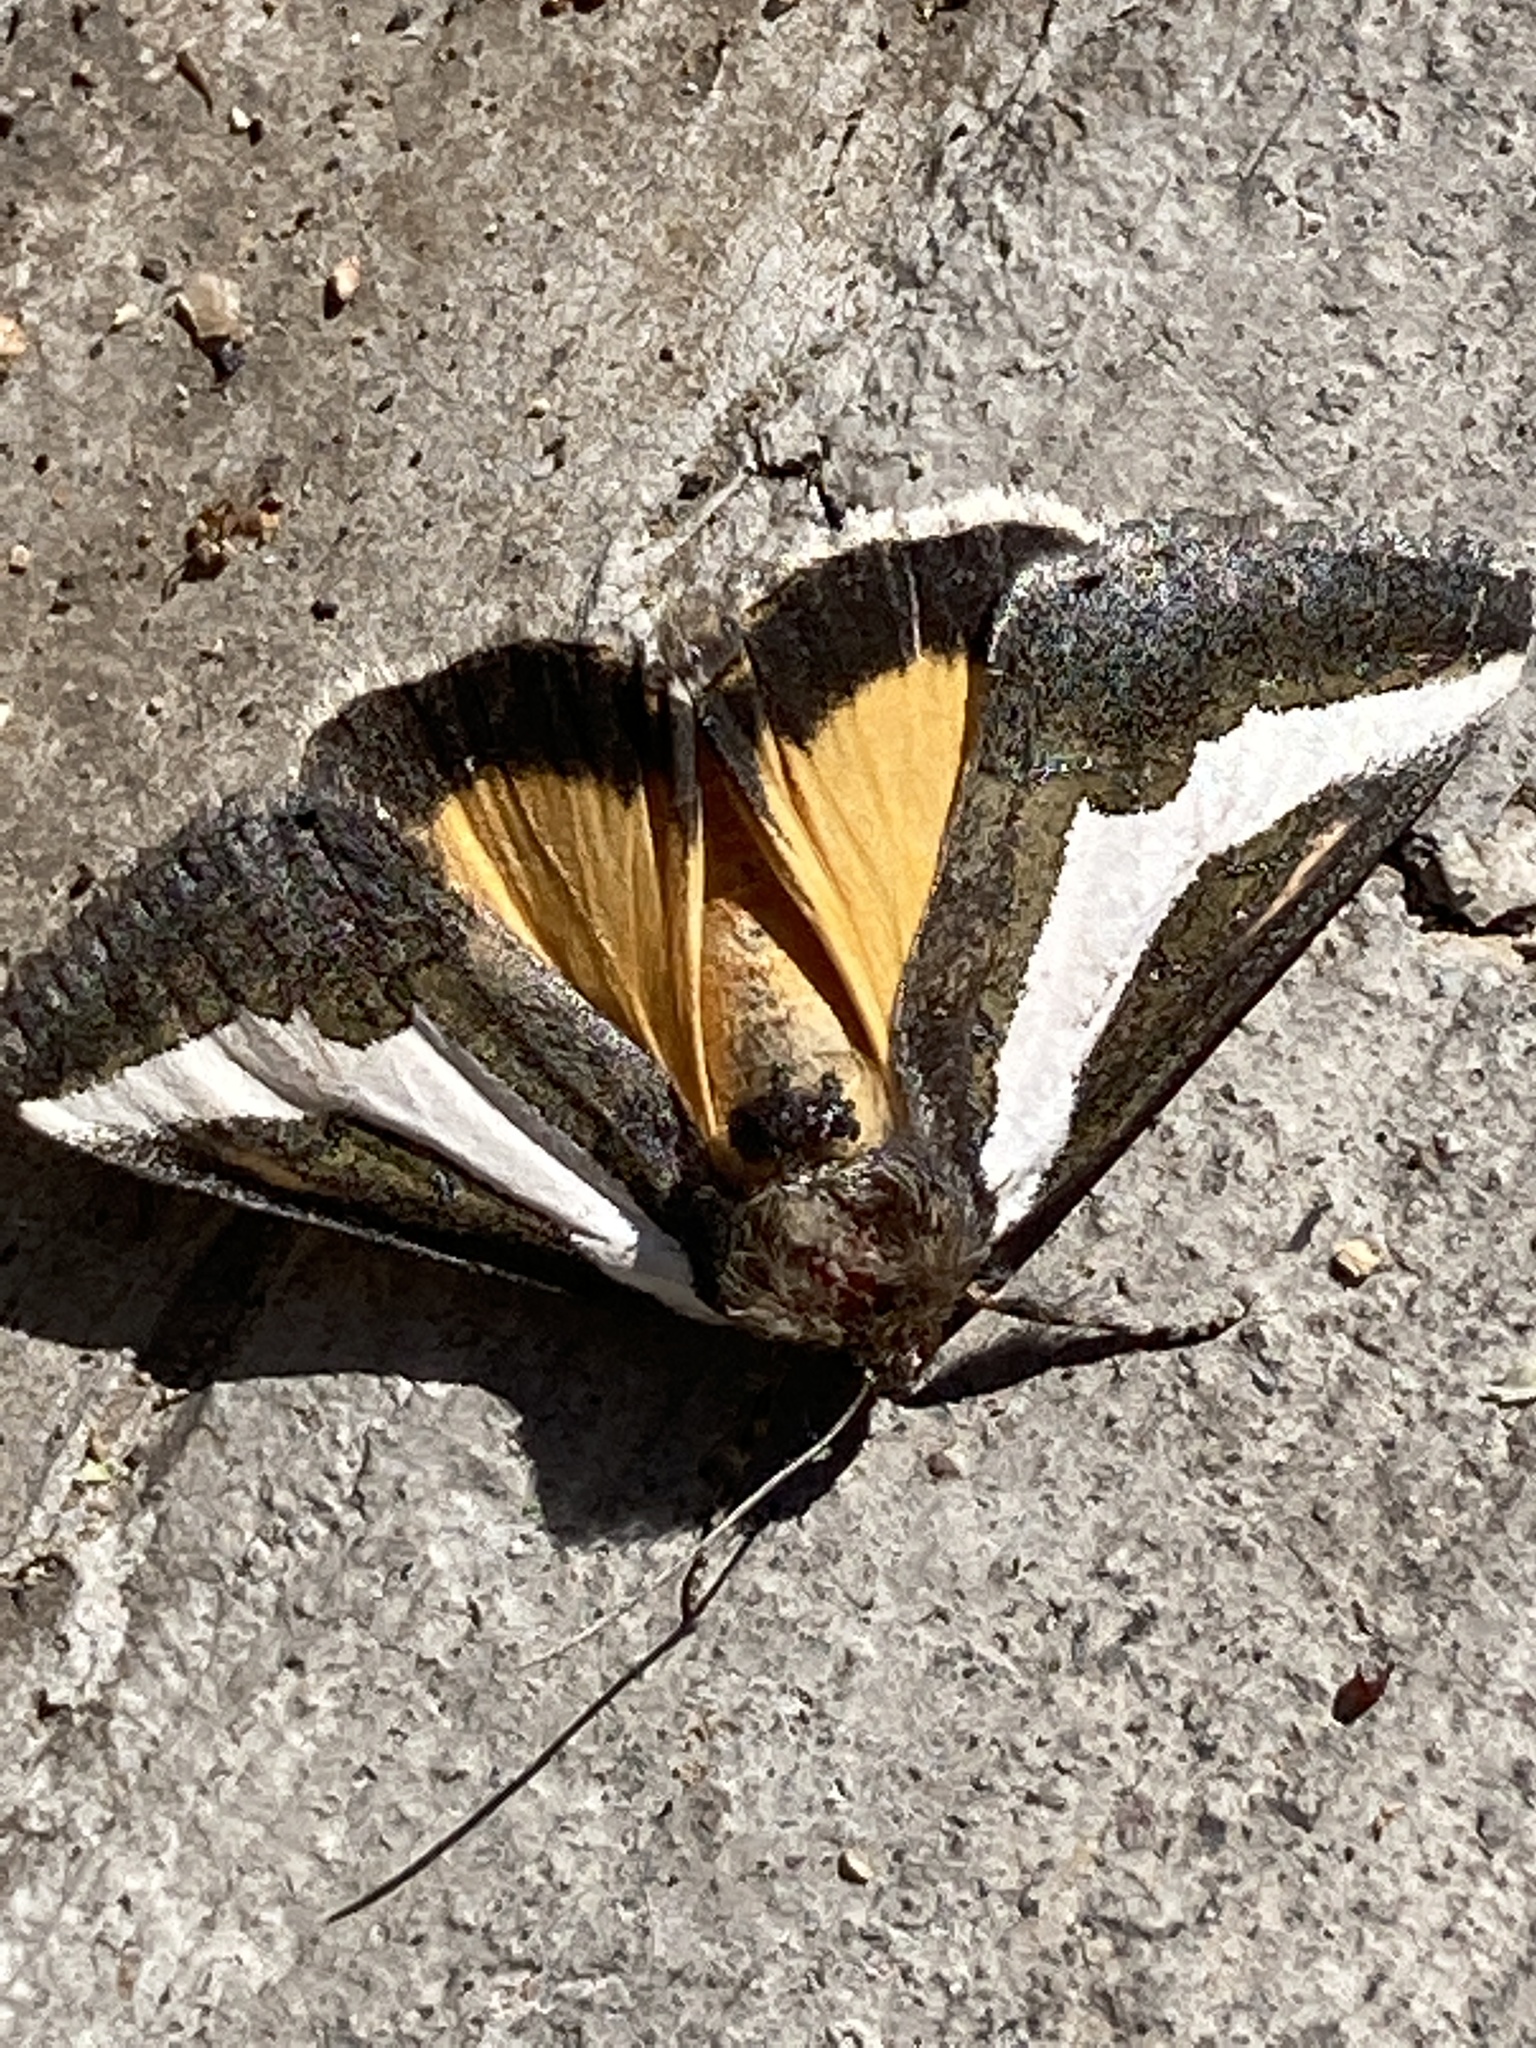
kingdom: Animalia
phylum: Arthropoda
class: Insecta
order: Lepidoptera
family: Noctuidae
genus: Euscirrhopterus
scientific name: Euscirrhopterus cosyra
